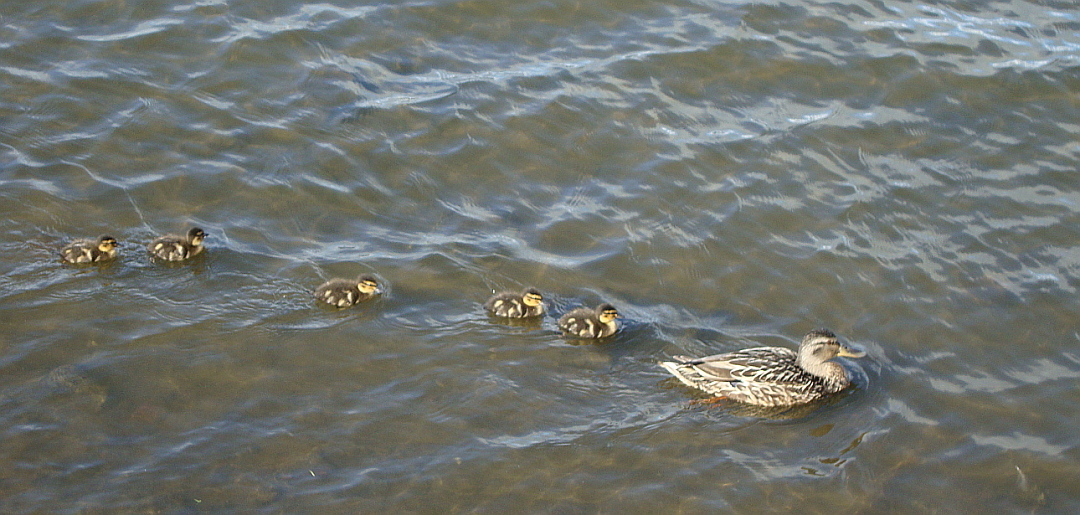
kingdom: Animalia
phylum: Chordata
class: Aves
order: Anseriformes
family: Anatidae
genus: Anas
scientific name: Anas platyrhynchos
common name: Mallard
